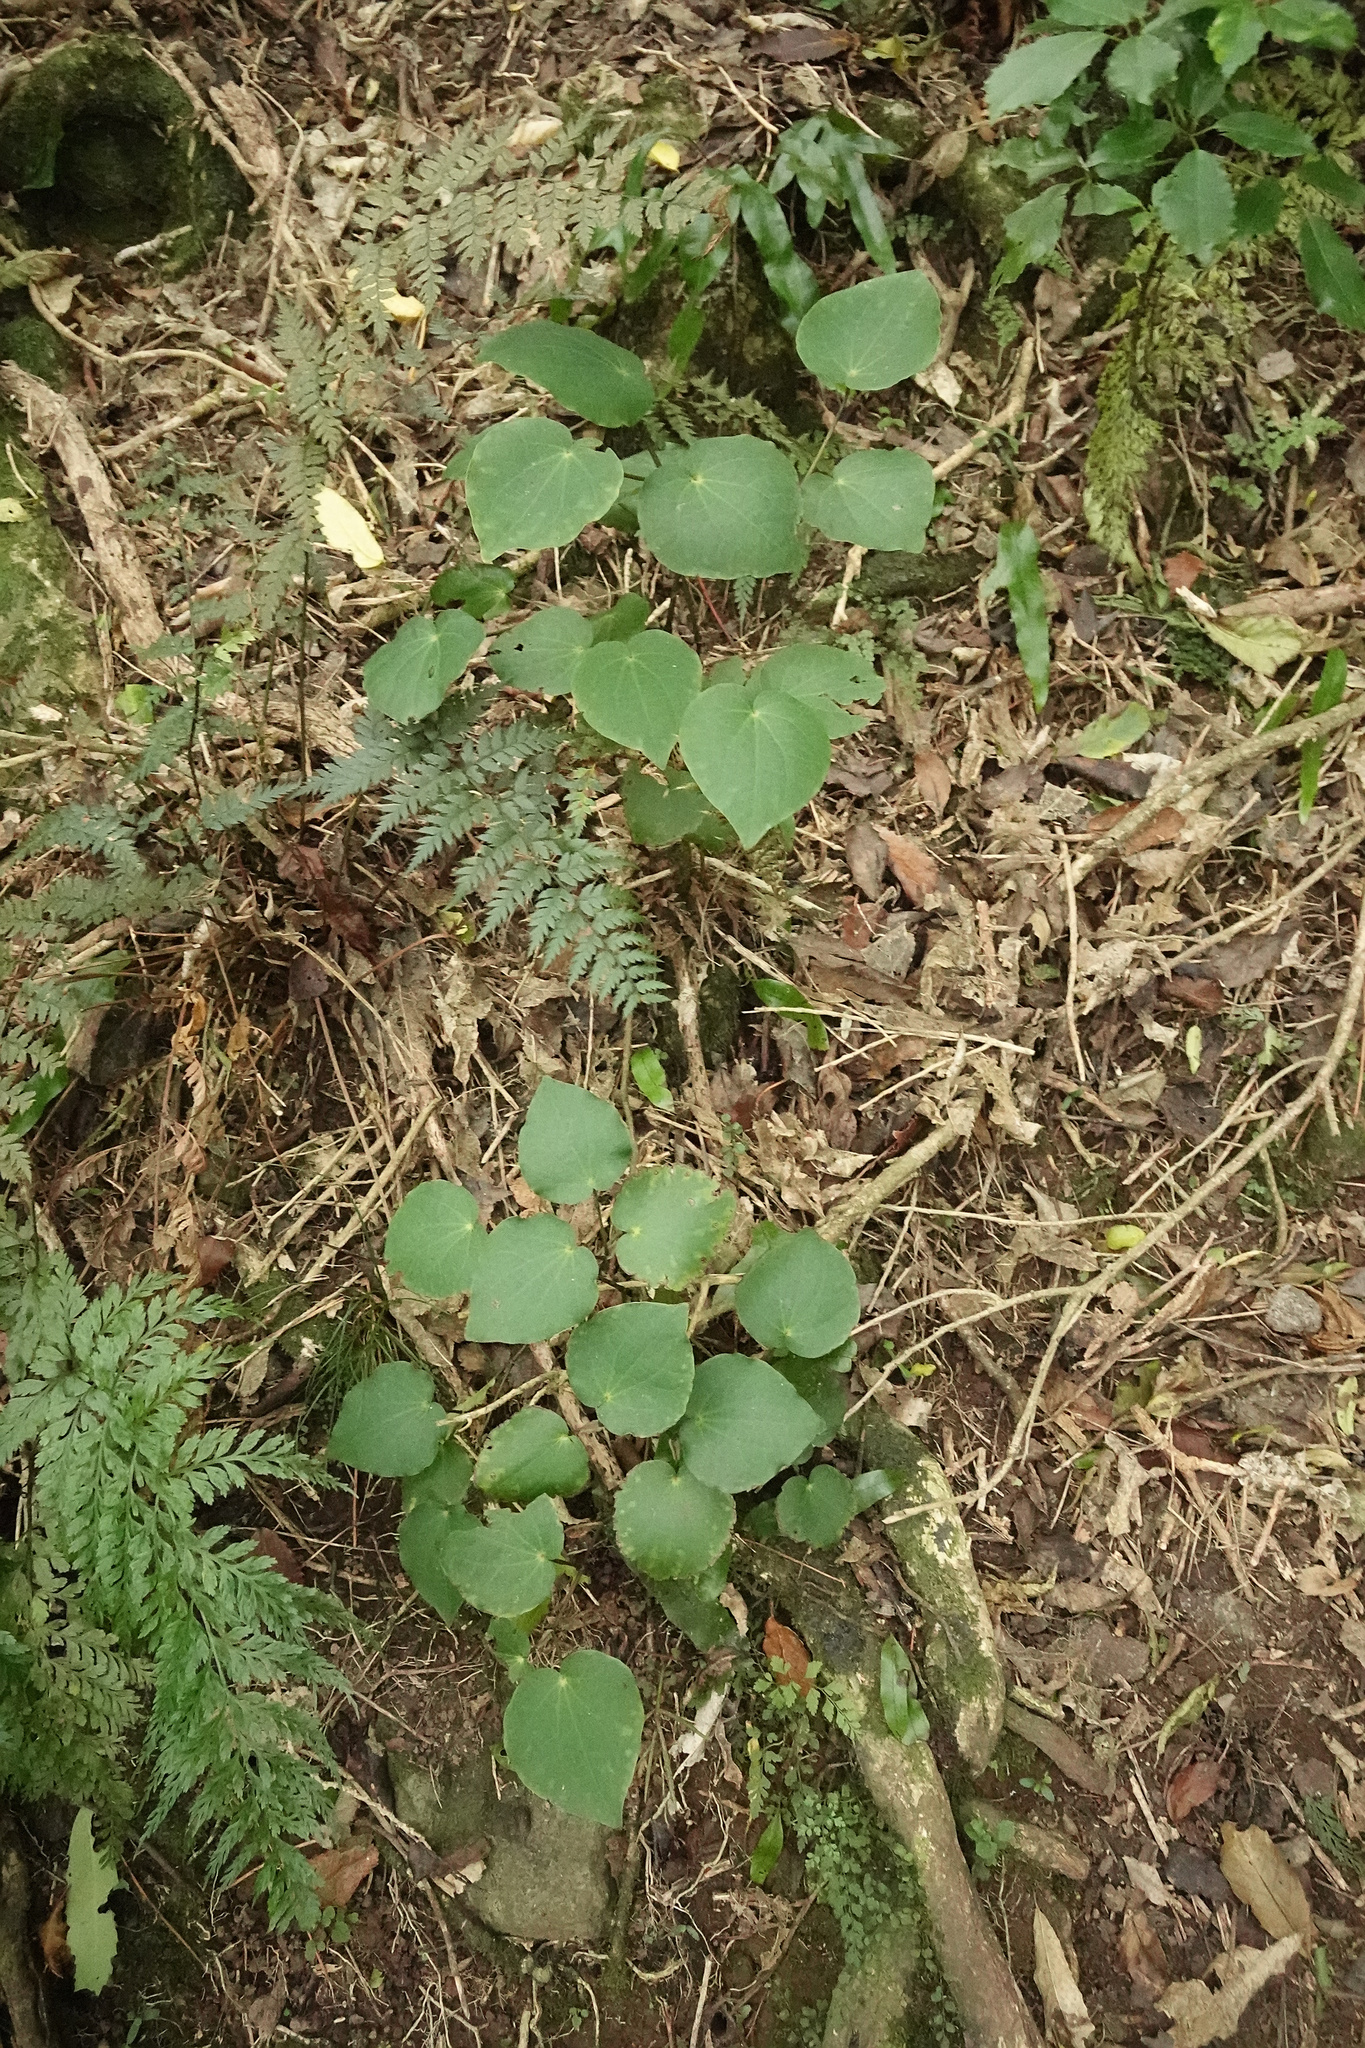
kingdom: Plantae
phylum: Tracheophyta
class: Magnoliopsida
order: Piperales
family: Piperaceae
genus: Macropiper
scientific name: Macropiper excelsum
